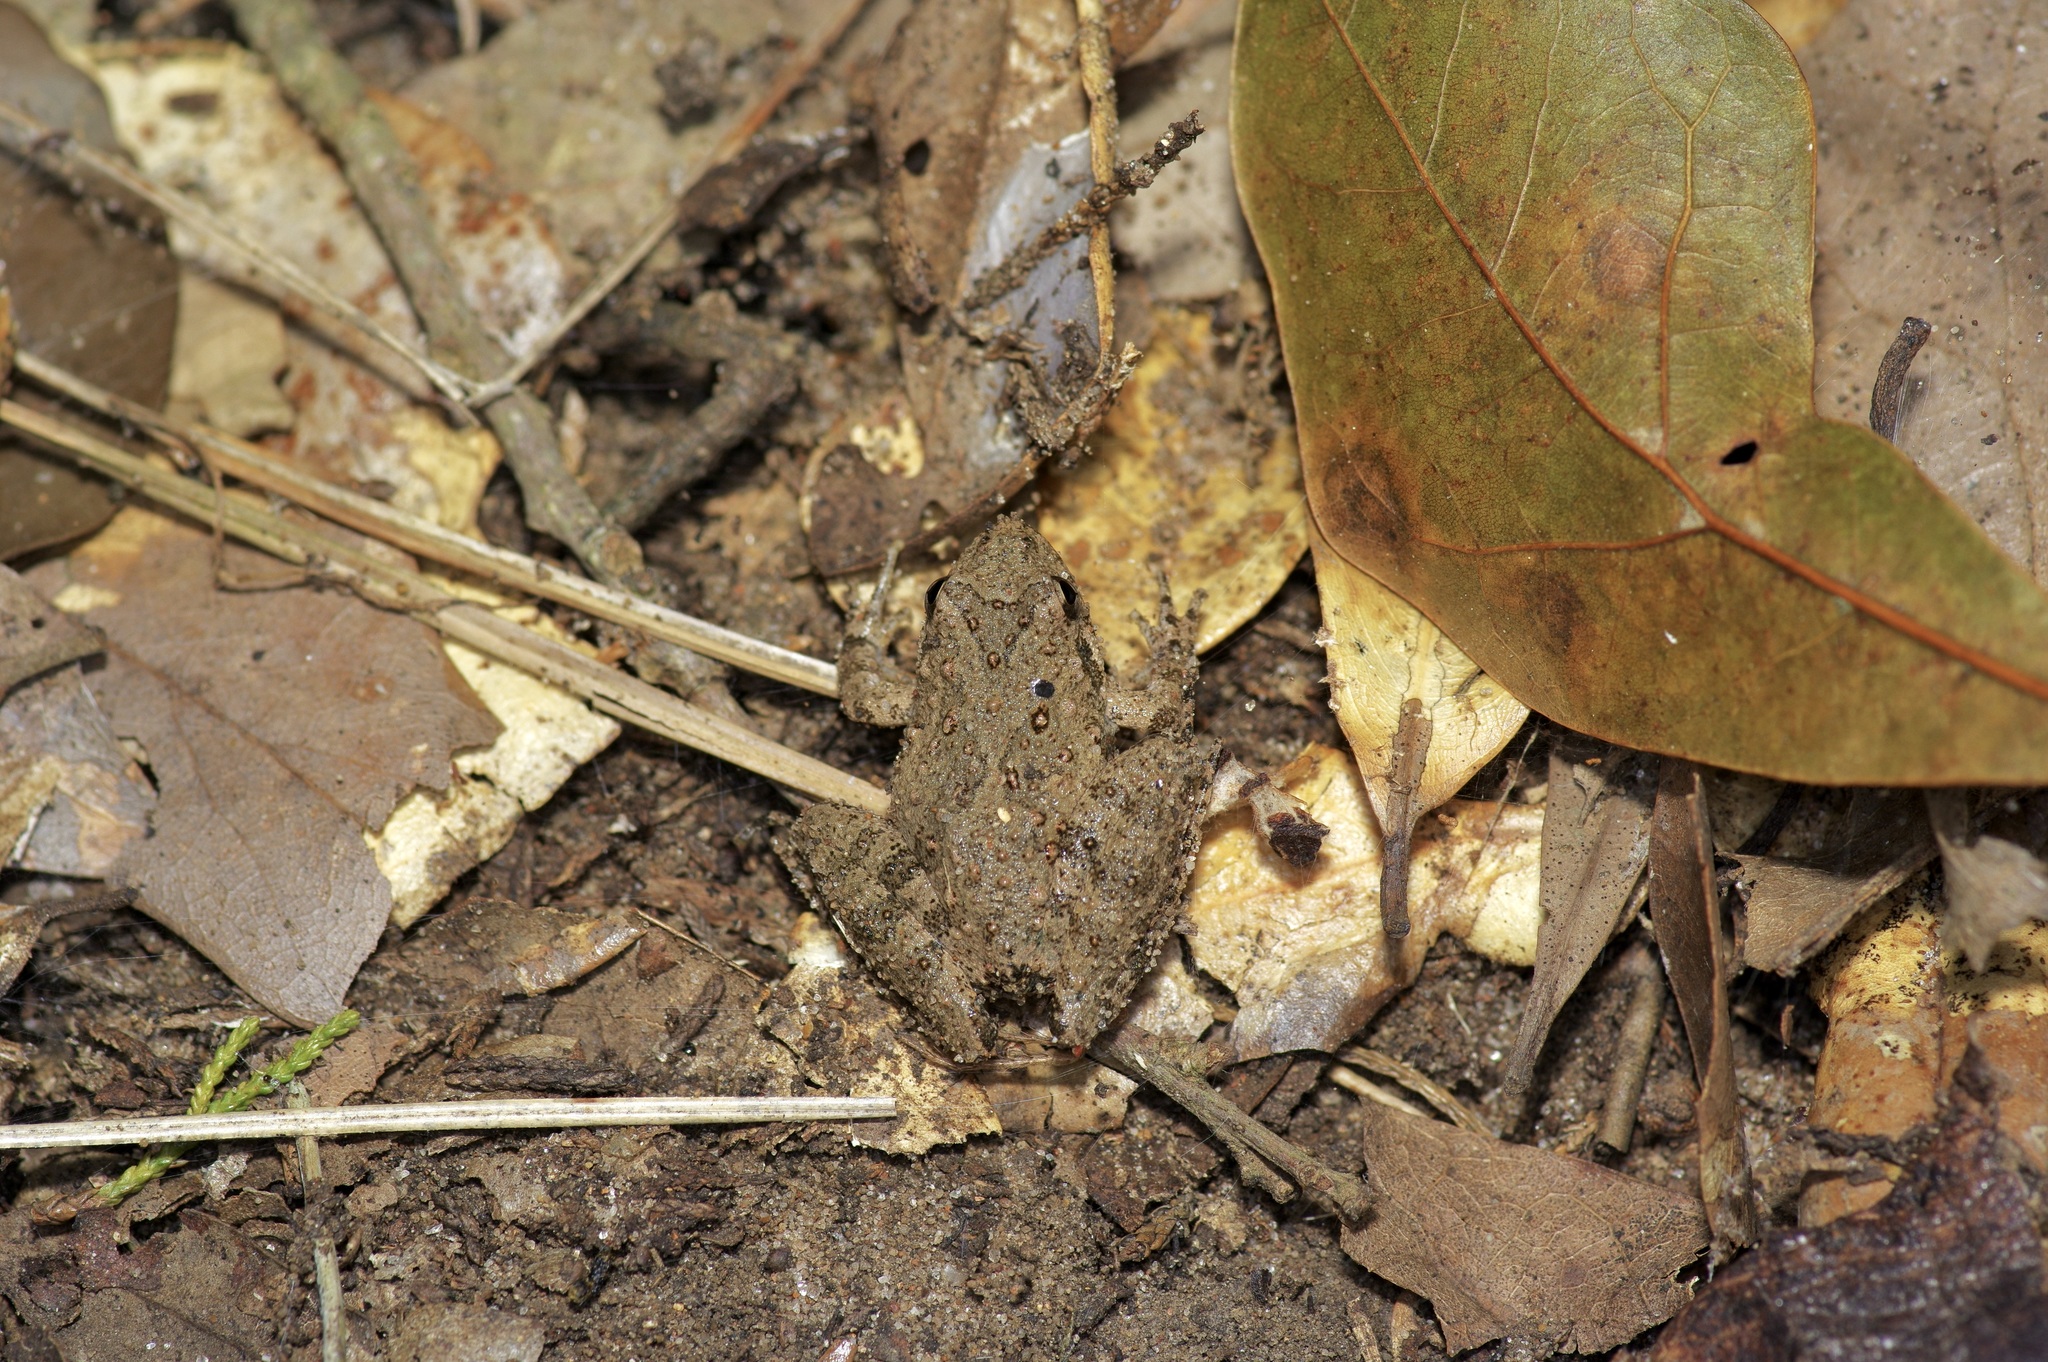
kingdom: Animalia
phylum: Chordata
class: Amphibia
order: Anura
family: Hylidae
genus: Acris
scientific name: Acris blanchardi
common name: Blanchard's cricket frog
